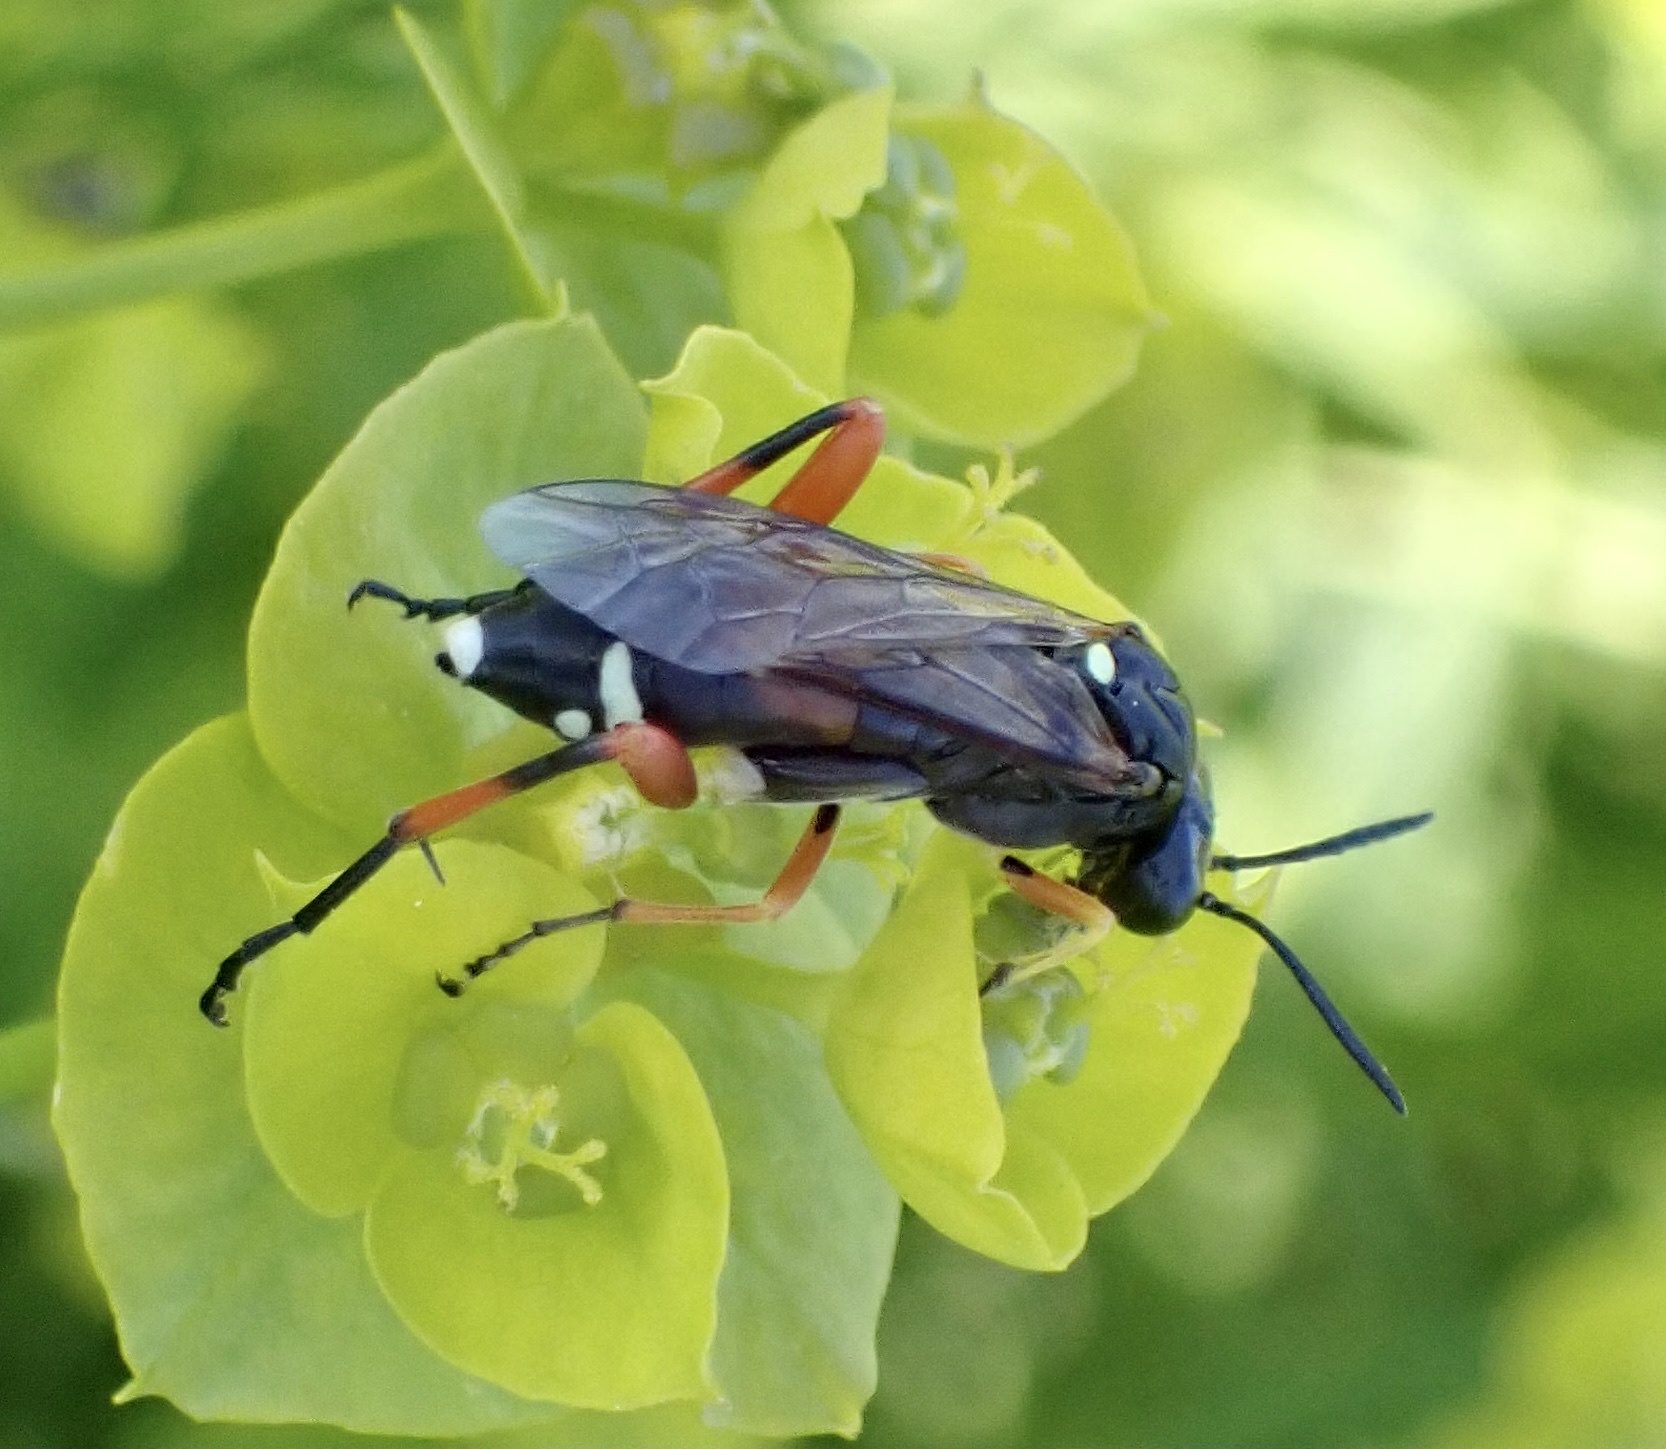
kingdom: Animalia
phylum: Arthropoda
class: Insecta
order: Hymenoptera
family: Tenthredinidae
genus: Macrophya
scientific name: Macrophya rufipes
